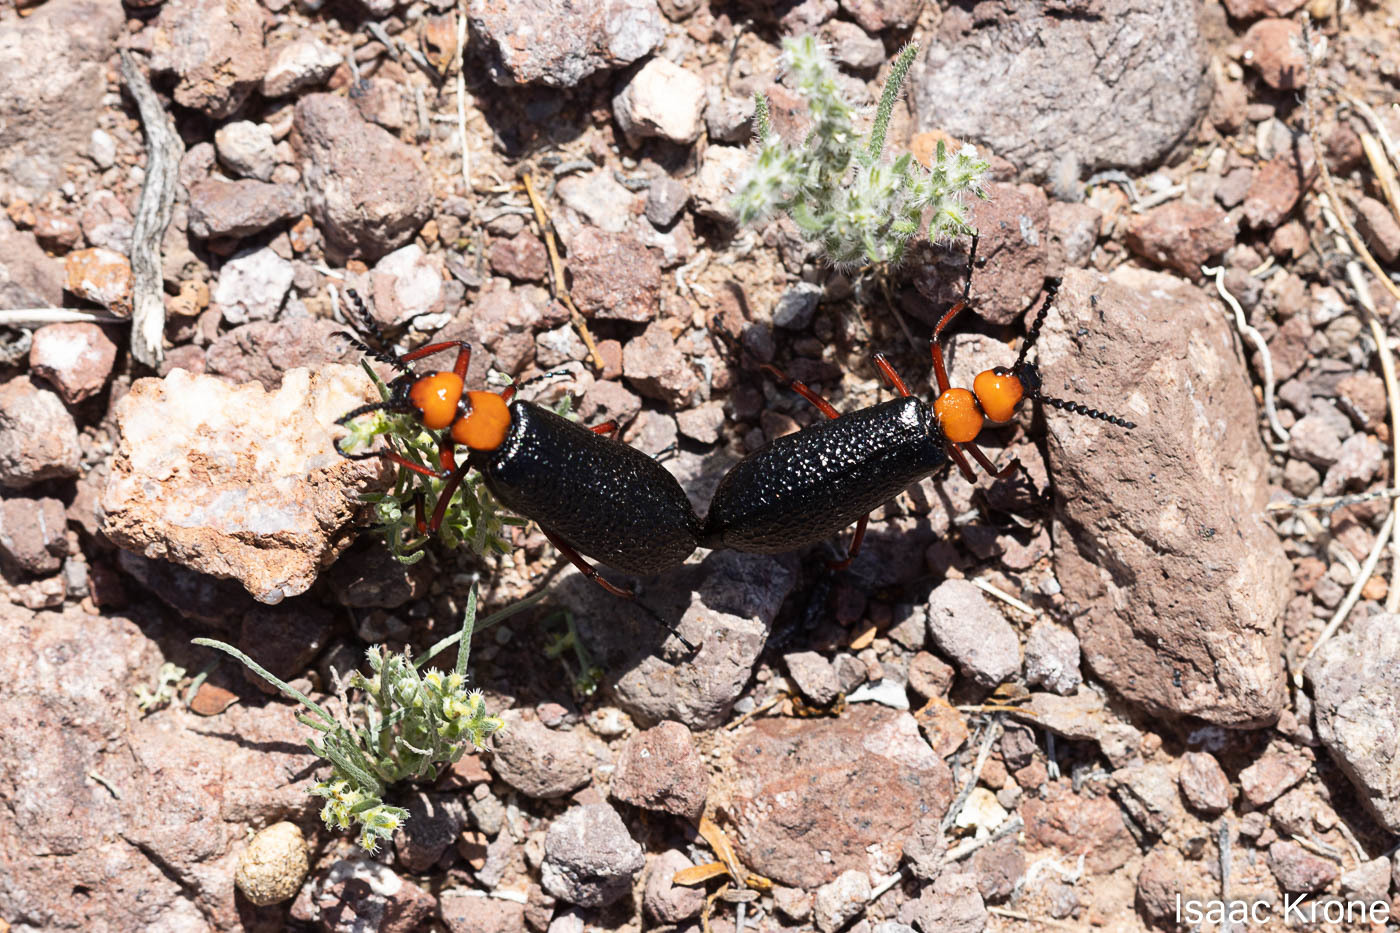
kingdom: Animalia
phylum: Arthropoda
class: Insecta
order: Coleoptera
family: Meloidae
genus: Lytta
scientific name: Lytta magister
